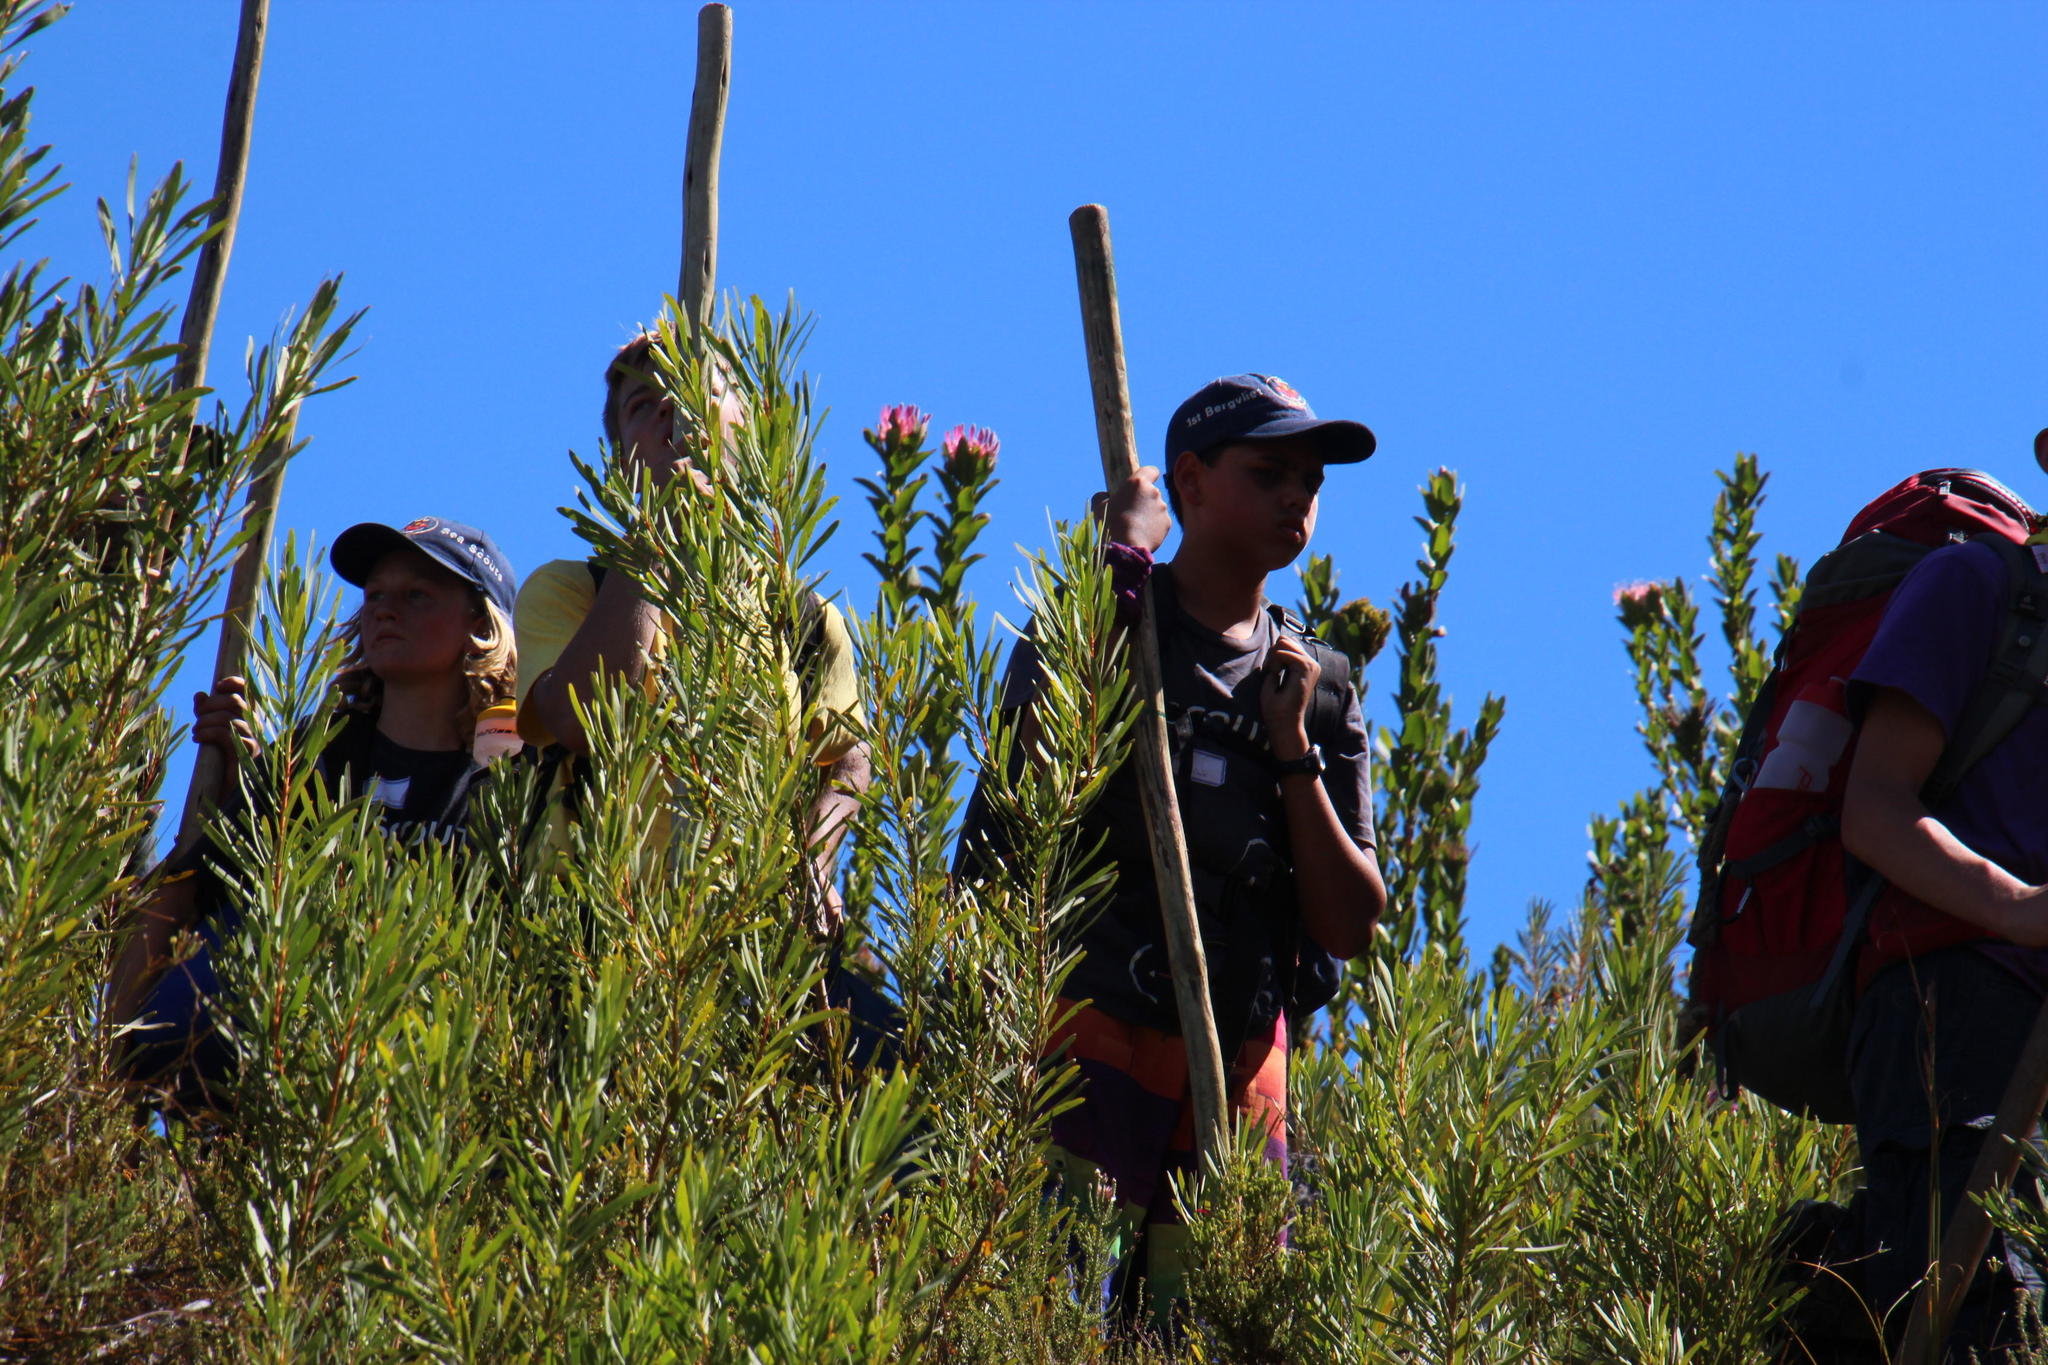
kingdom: Plantae
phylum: Tracheophyta
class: Magnoliopsida
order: Proteales
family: Proteaceae
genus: Protea
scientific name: Protea compacta
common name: Bot river protea
